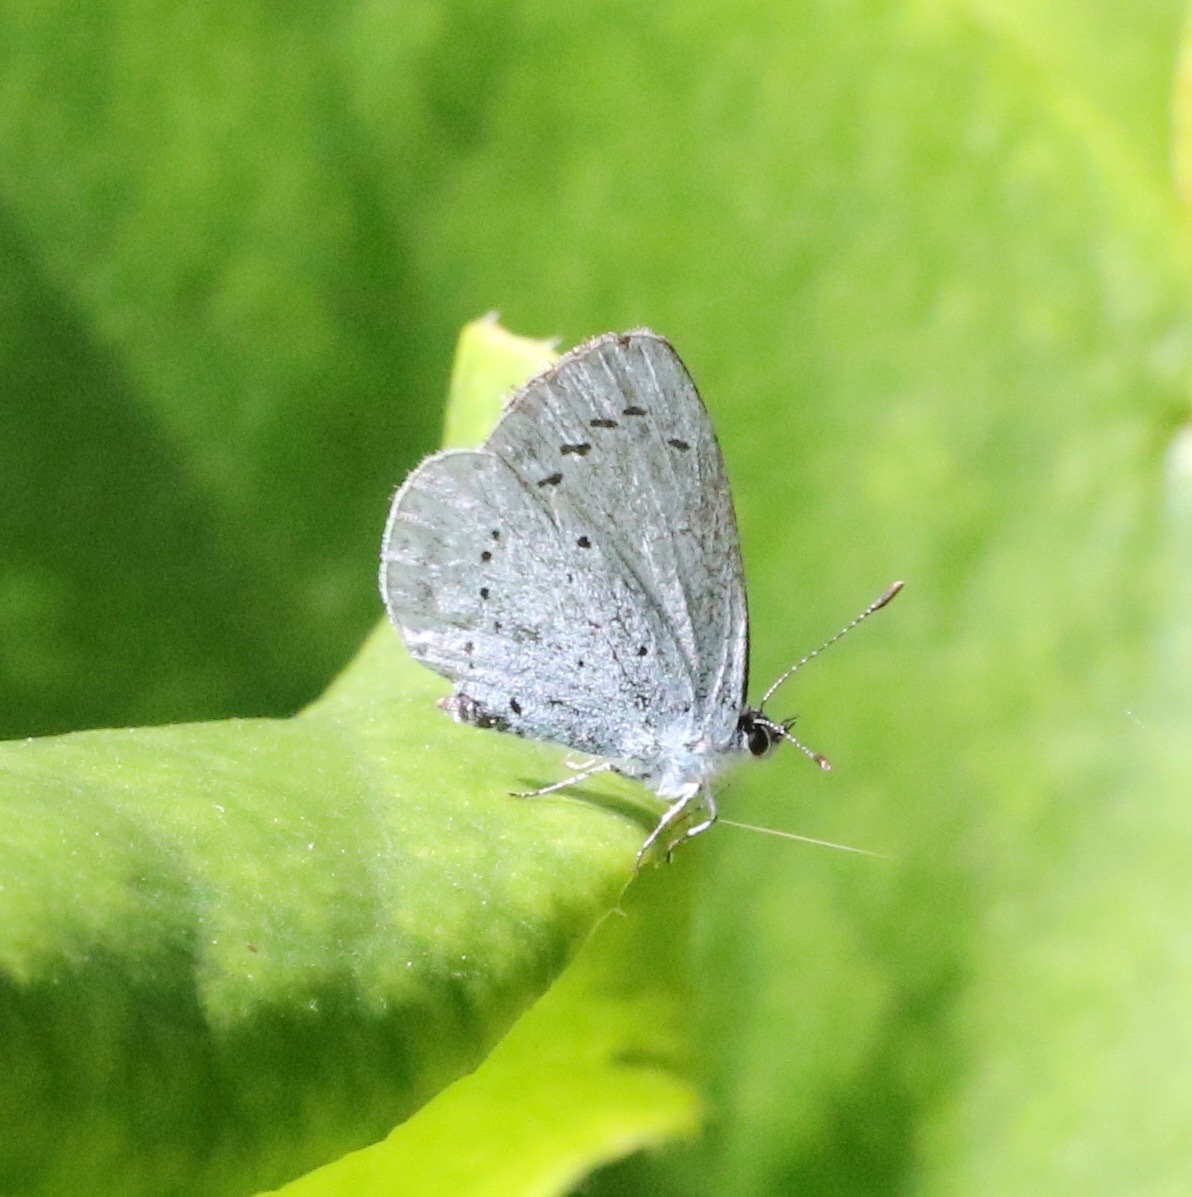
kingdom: Animalia
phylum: Arthropoda
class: Insecta
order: Lepidoptera
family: Lycaenidae
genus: Celastrina
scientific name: Celastrina argiolus
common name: Holly blue
